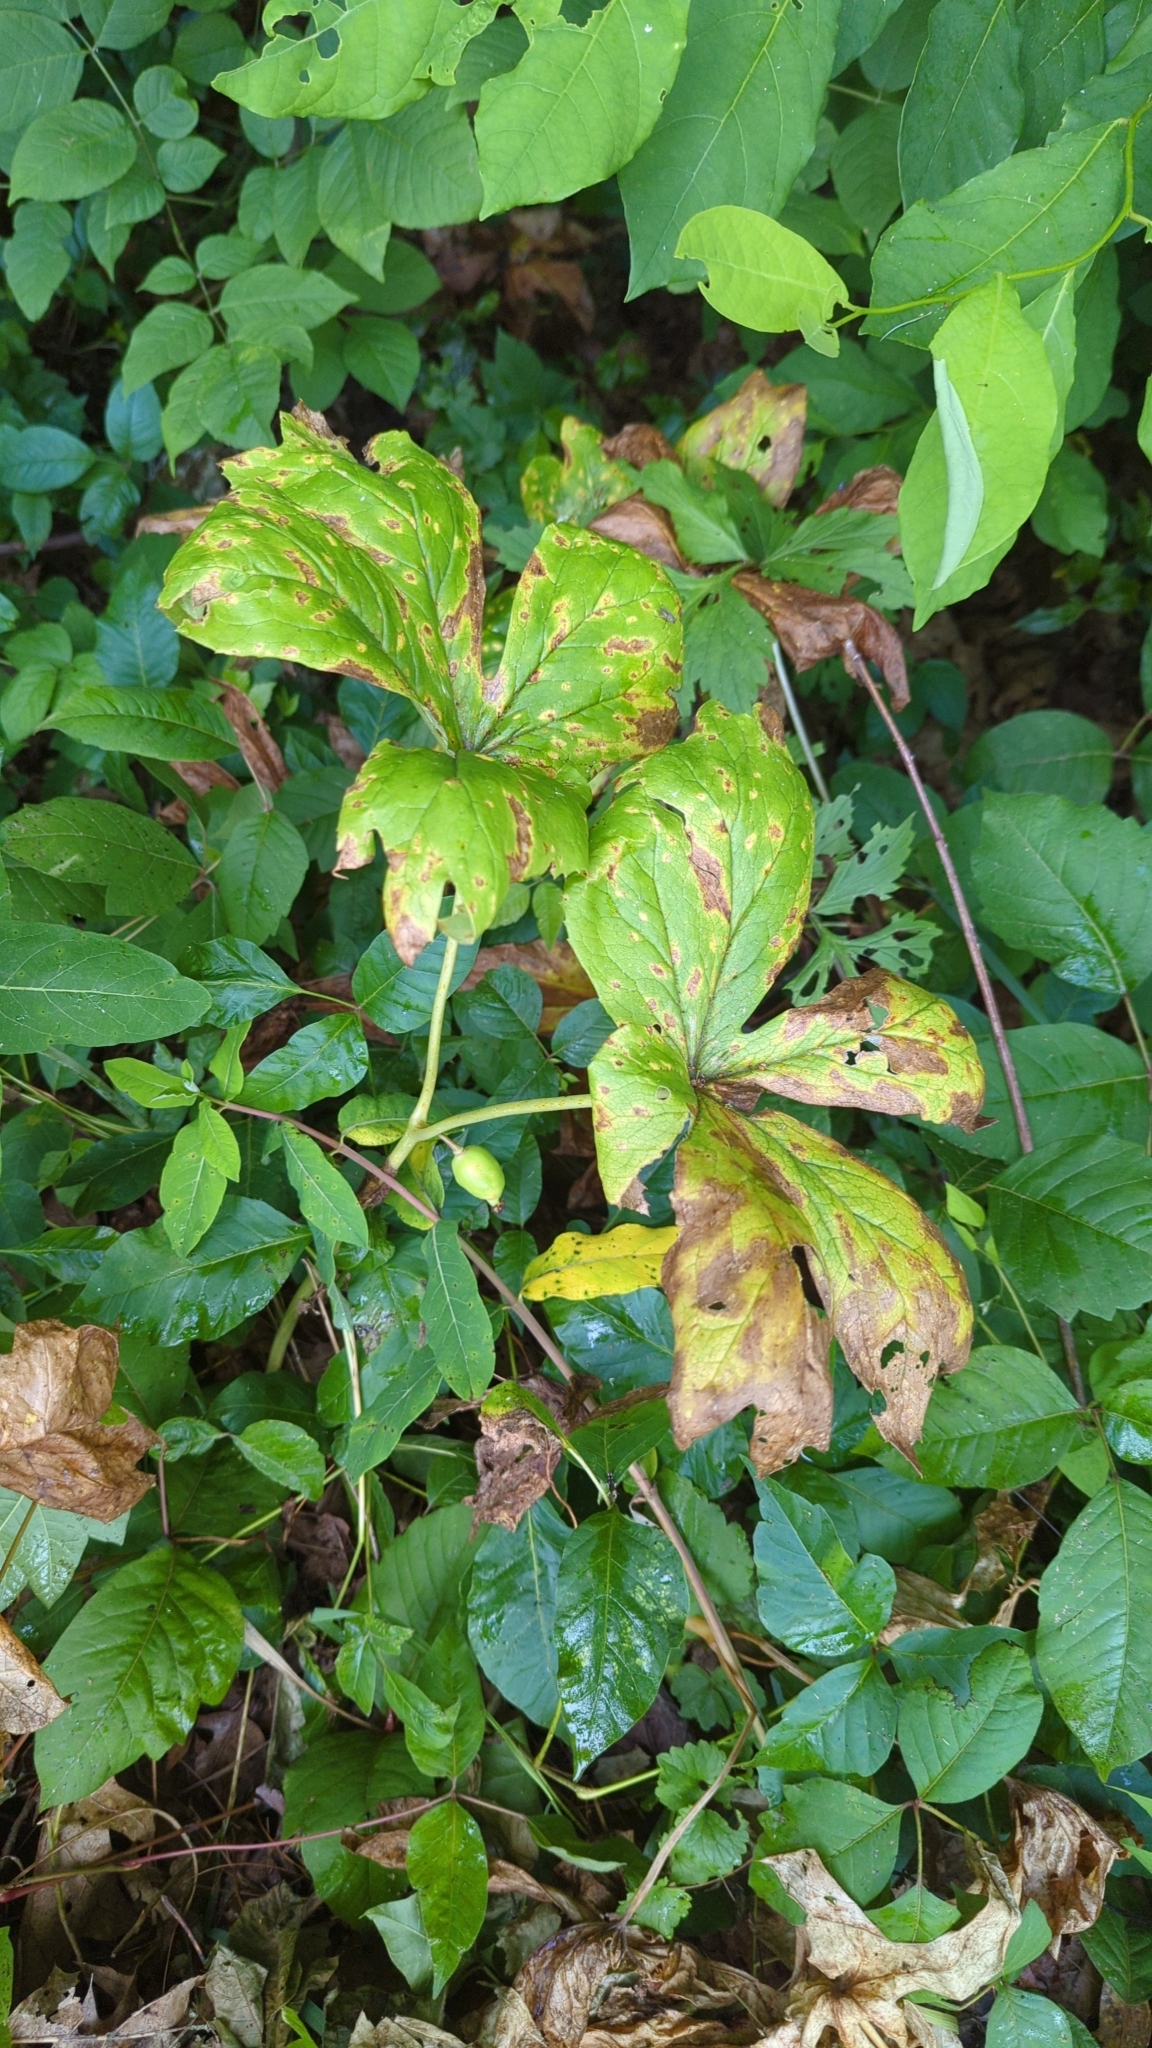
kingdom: Plantae
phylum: Tracheophyta
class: Magnoliopsida
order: Ranunculales
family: Berberidaceae
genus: Podophyllum
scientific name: Podophyllum peltatum
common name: Wild mandrake
